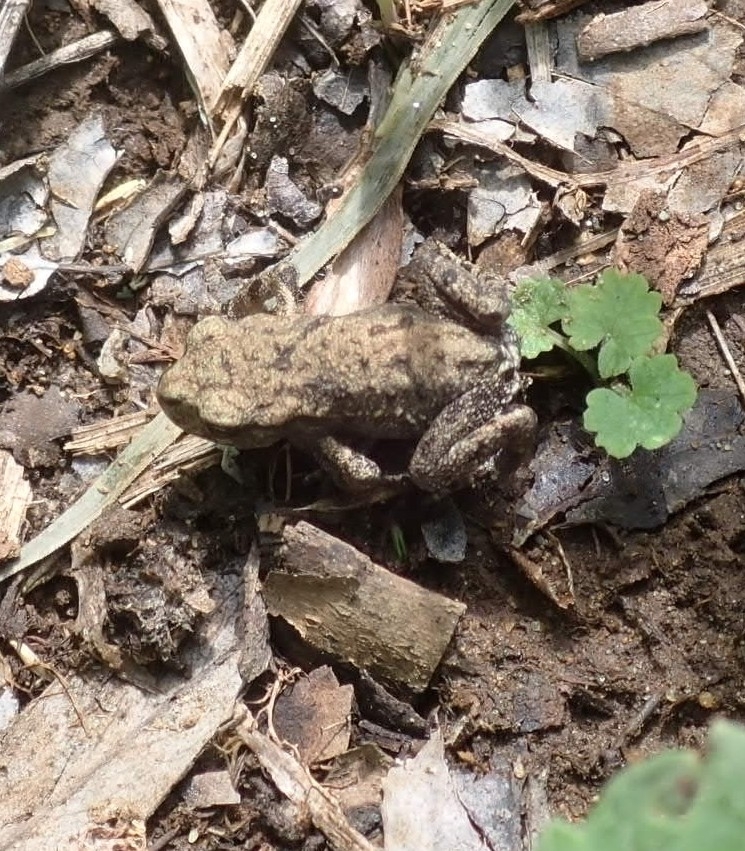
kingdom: Animalia
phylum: Chordata
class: Amphibia
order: Anura
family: Bufonidae
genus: Bufo
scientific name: Bufo bufo
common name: Common toad
